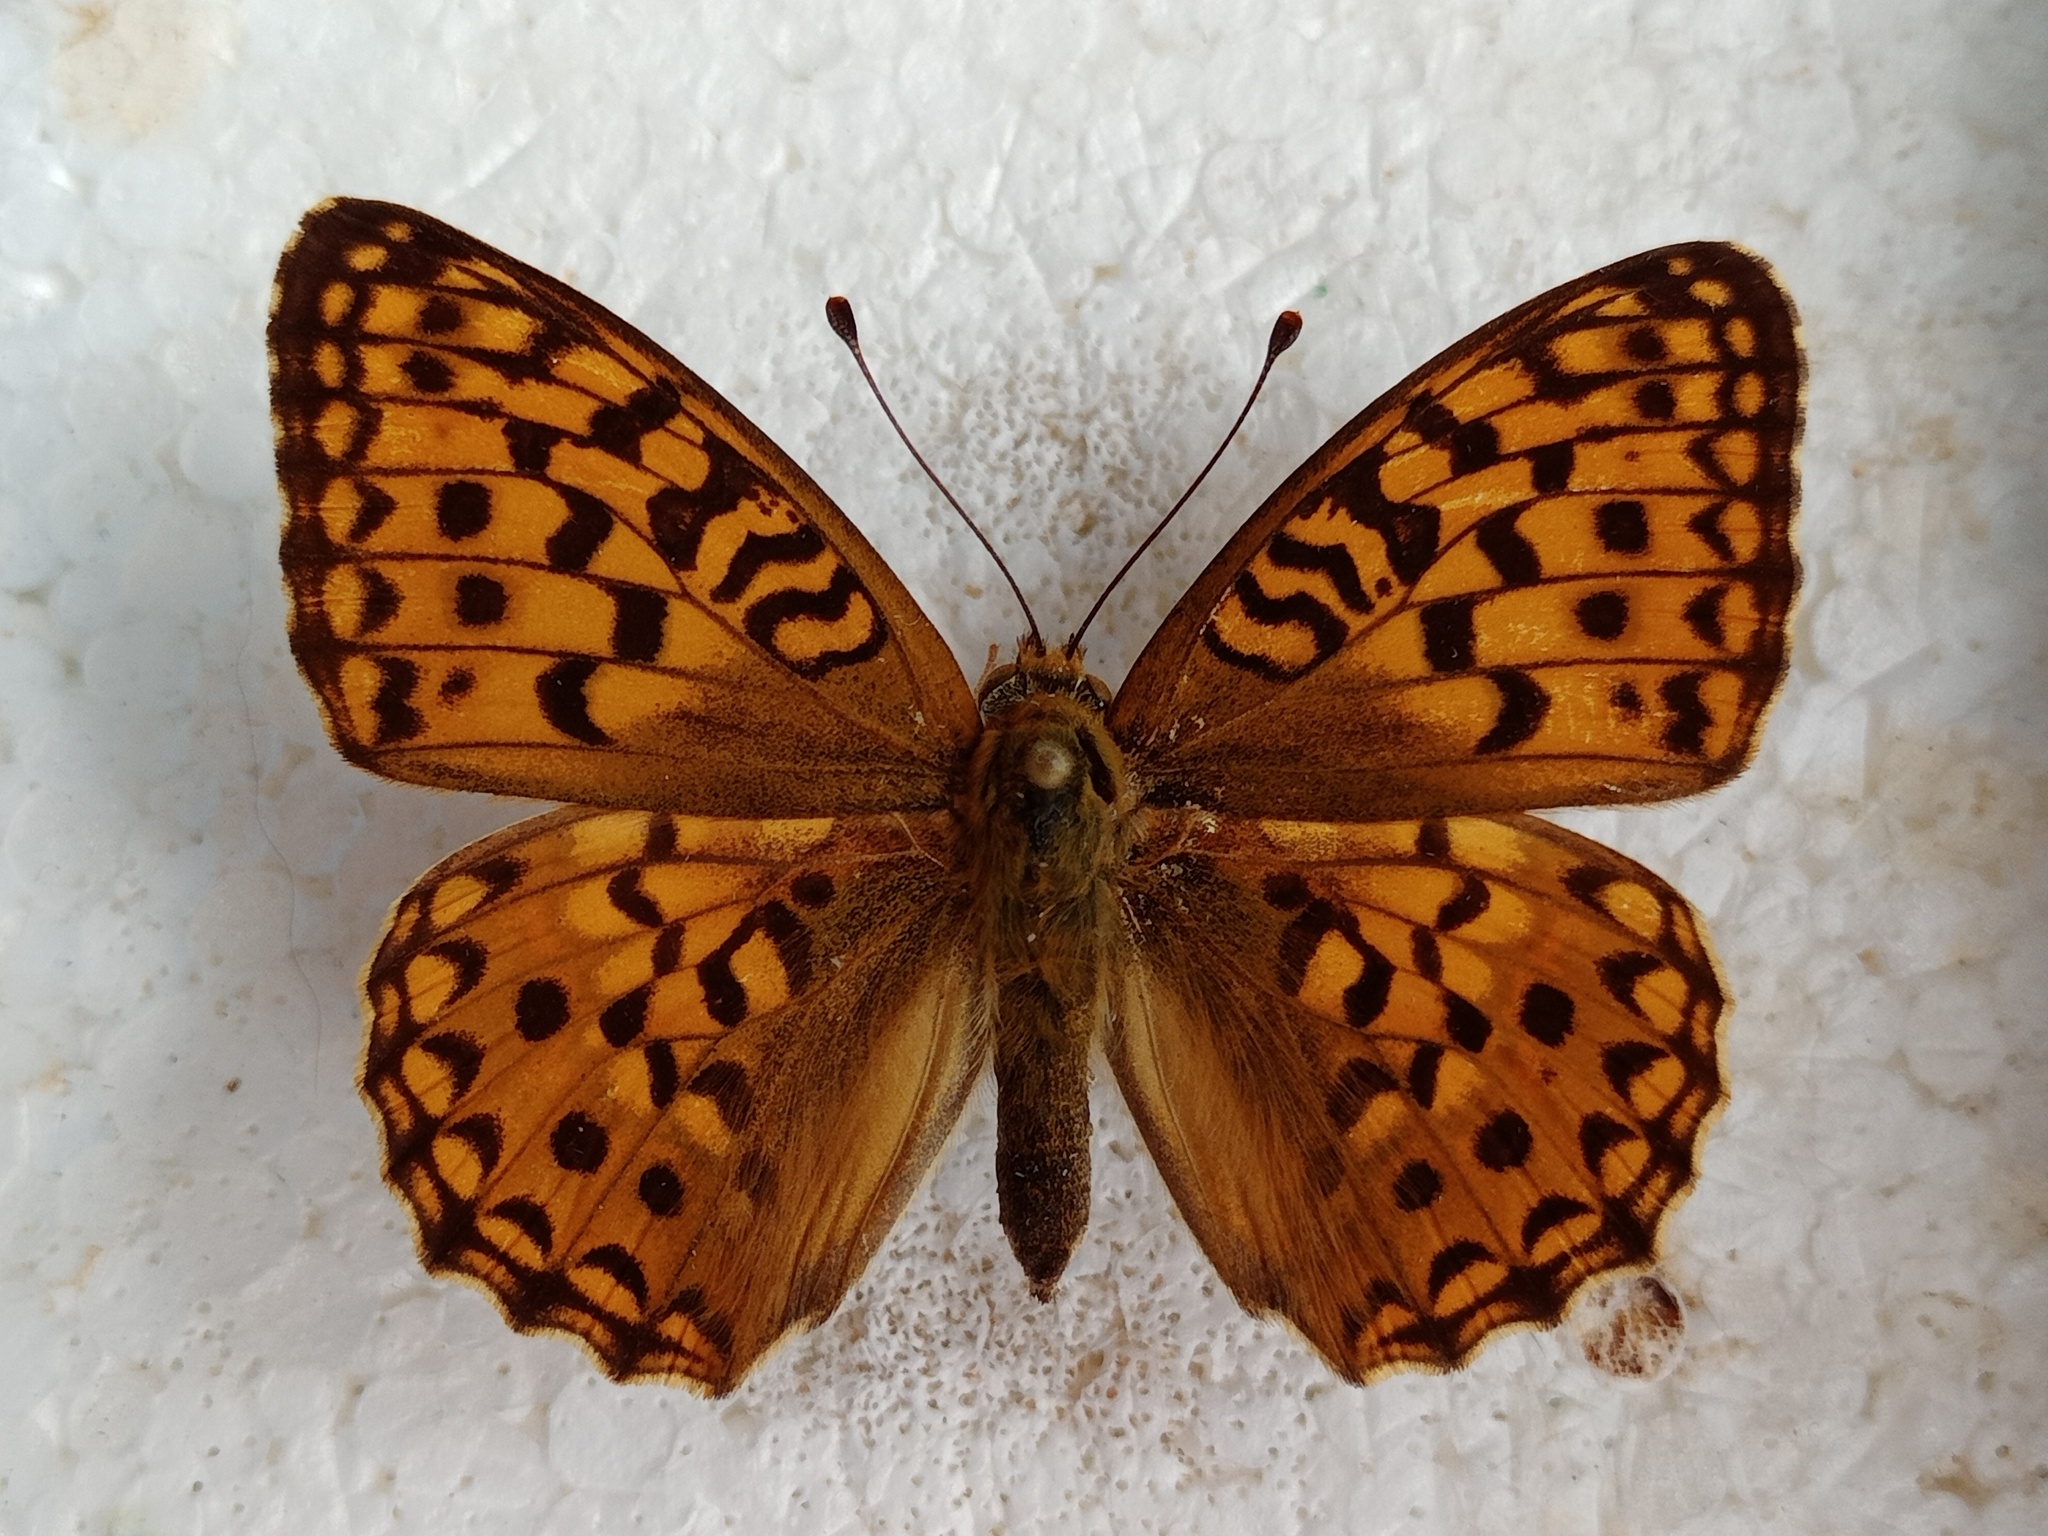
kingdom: Animalia
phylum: Arthropoda
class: Insecta
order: Lepidoptera
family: Nymphalidae
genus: Fabriciana
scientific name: Fabriciana adippe
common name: High brown fritillary
